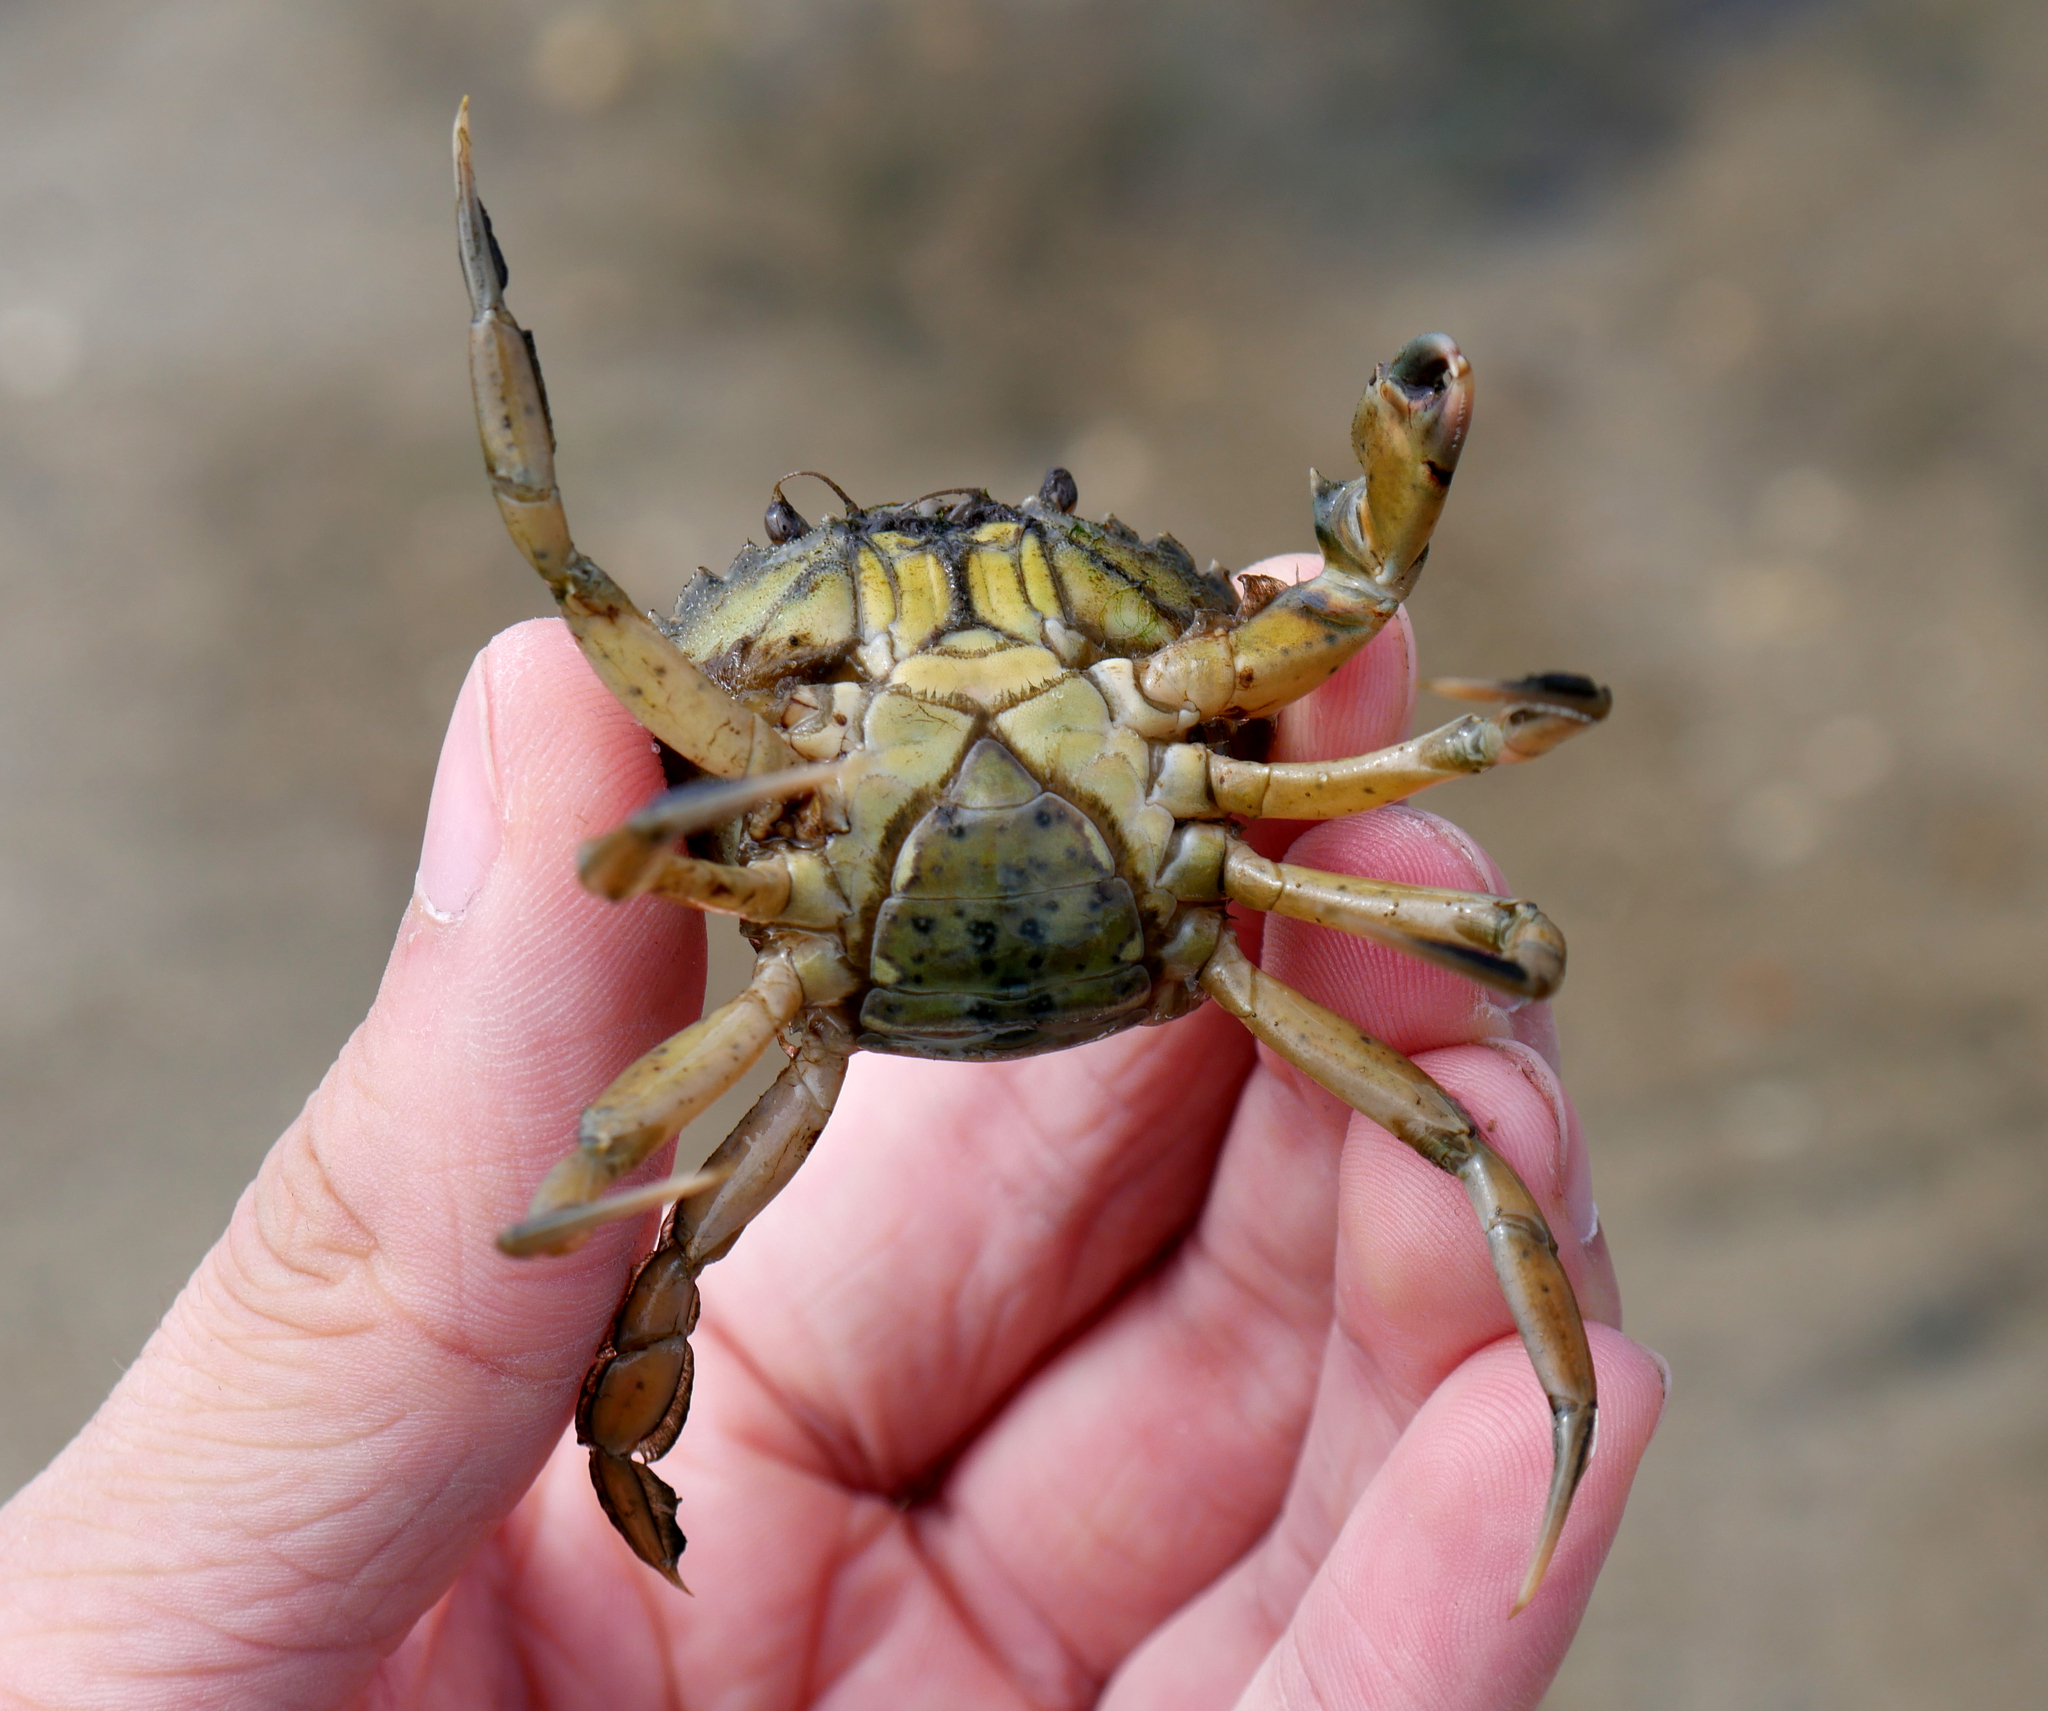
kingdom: Animalia
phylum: Arthropoda
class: Malacostraca
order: Decapoda
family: Carcinidae
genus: Carcinus
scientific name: Carcinus maenas
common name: European green crab
